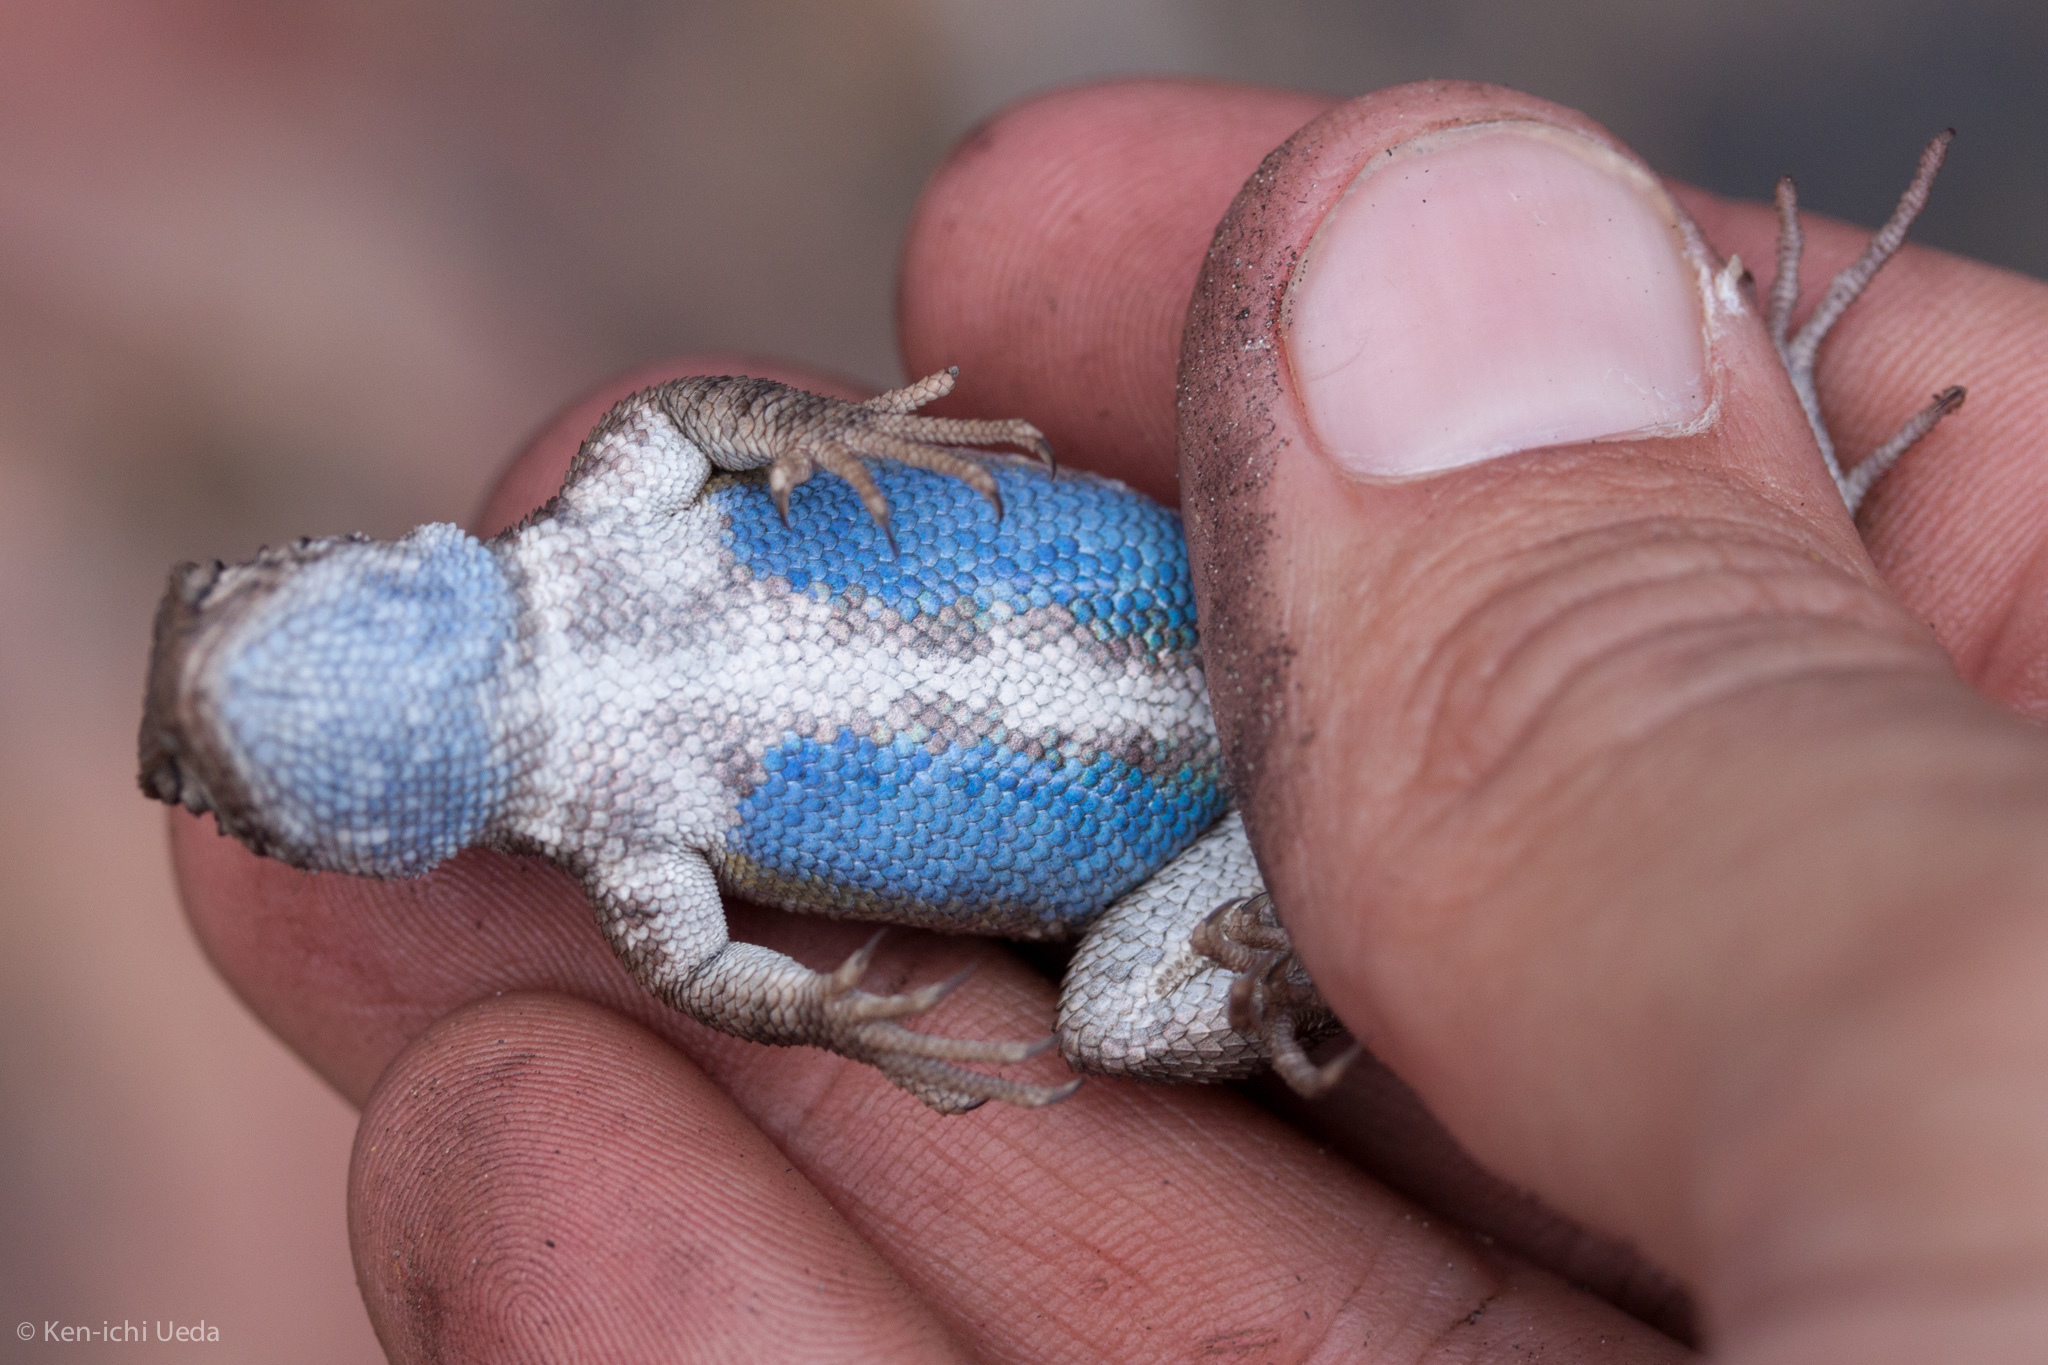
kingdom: Animalia
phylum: Chordata
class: Squamata
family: Phrynosomatidae
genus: Sceloporus
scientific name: Sceloporus graciosus
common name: Sagebrush lizard
